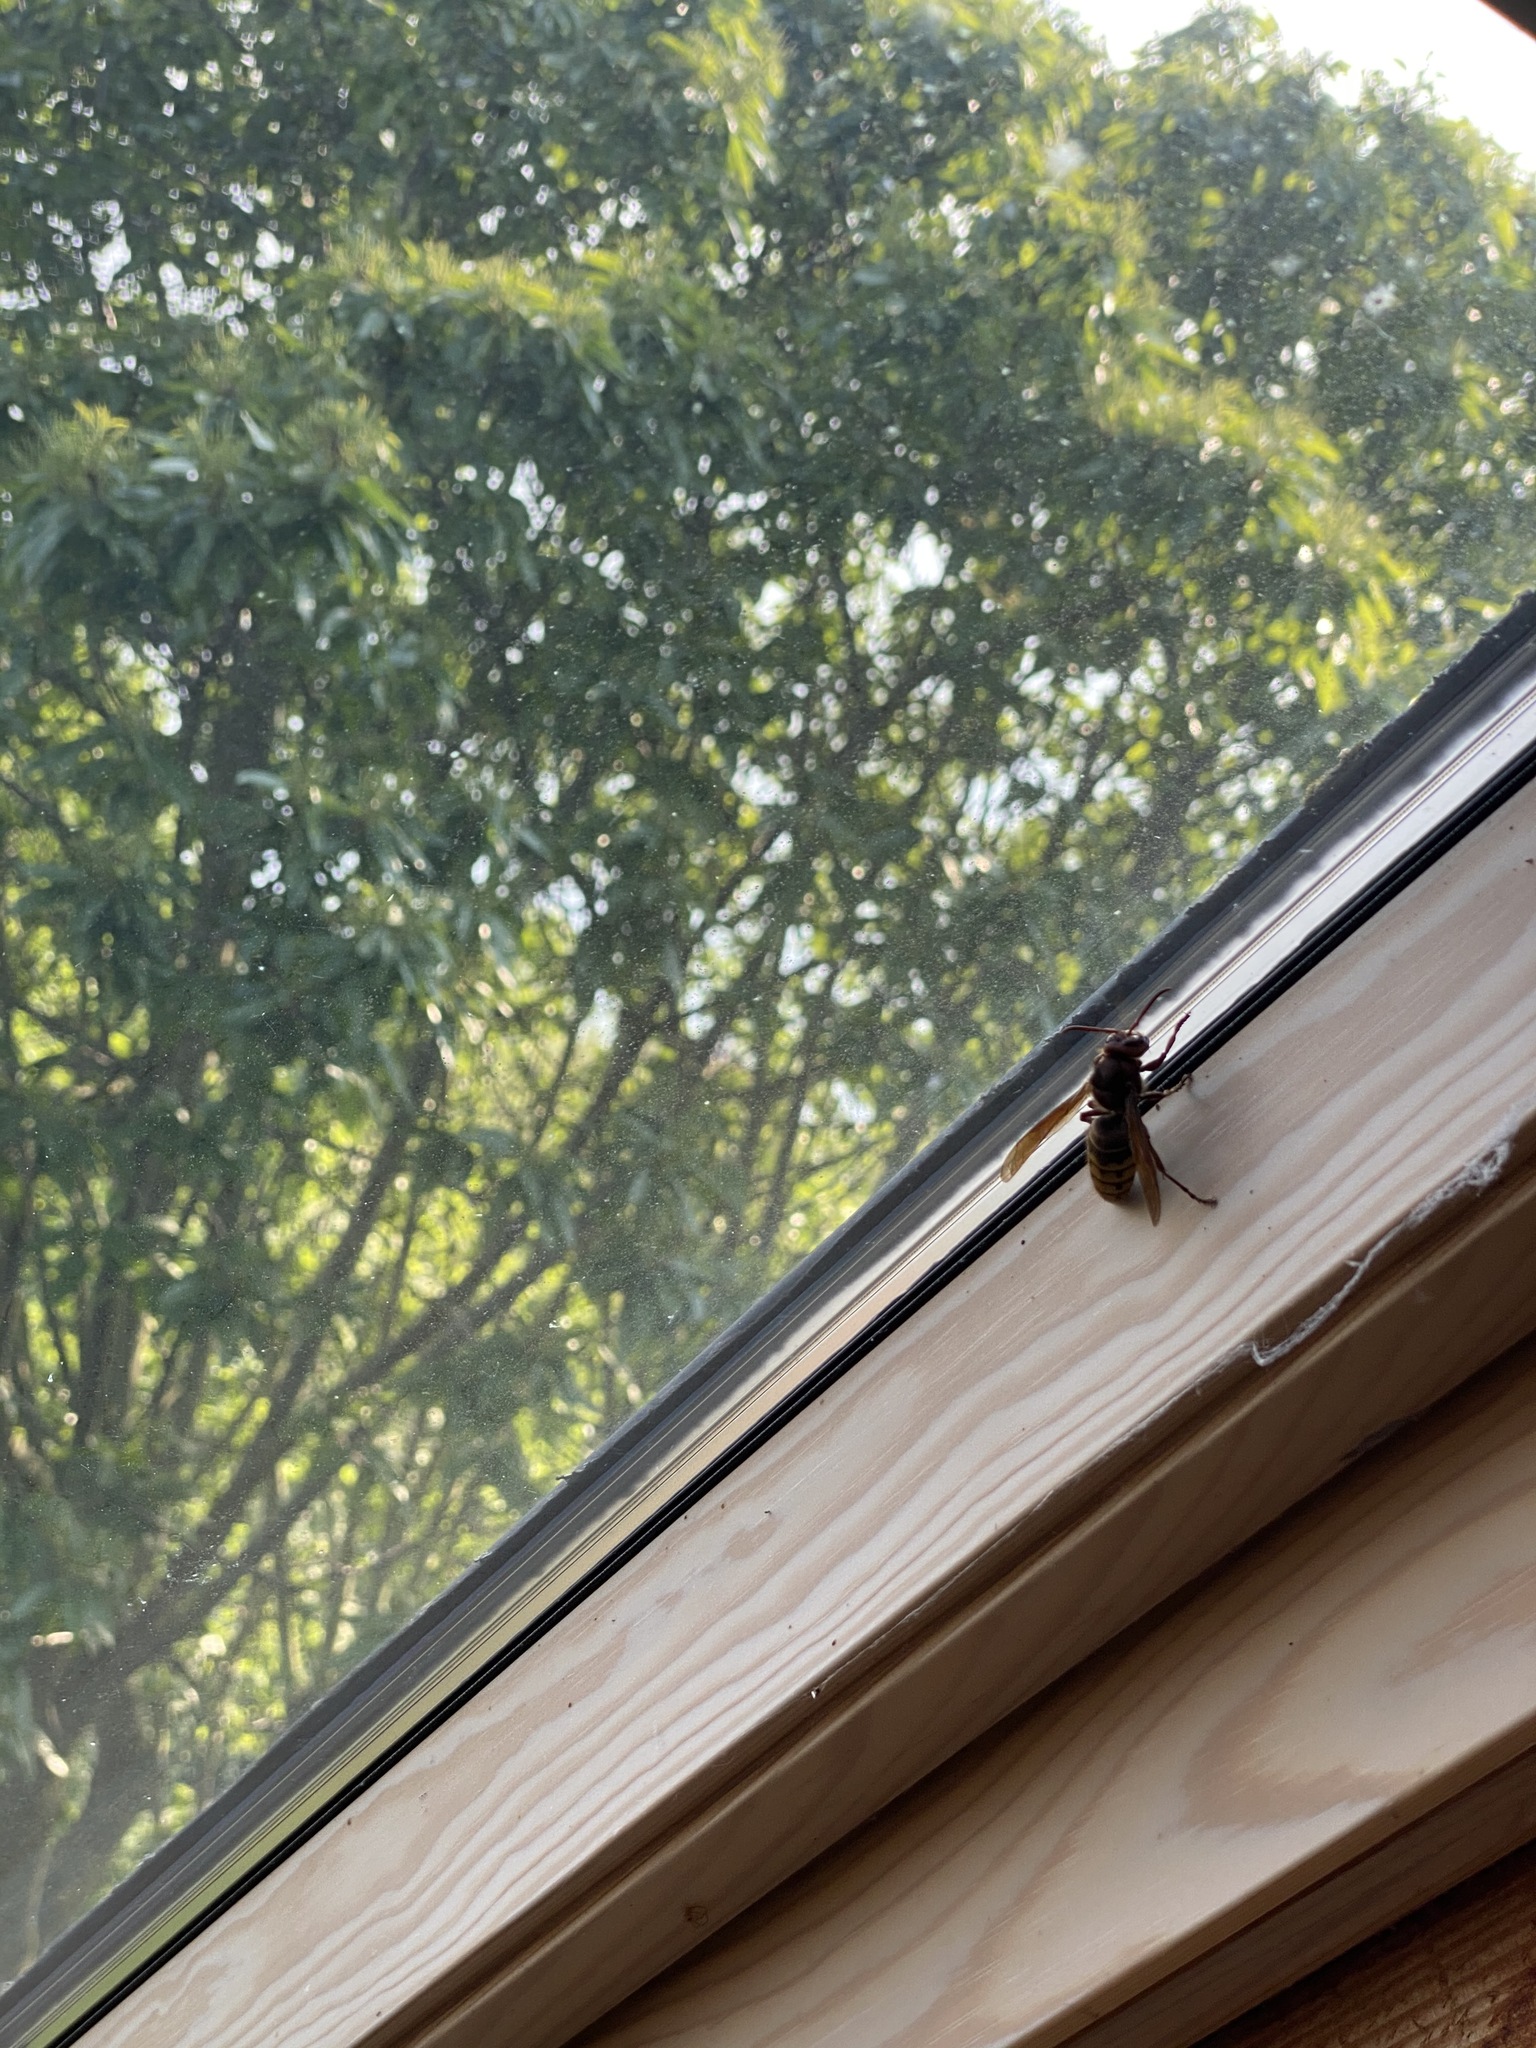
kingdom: Animalia
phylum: Arthropoda
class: Insecta
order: Hymenoptera
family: Vespidae
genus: Vespa
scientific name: Vespa crabro
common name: Hornet
